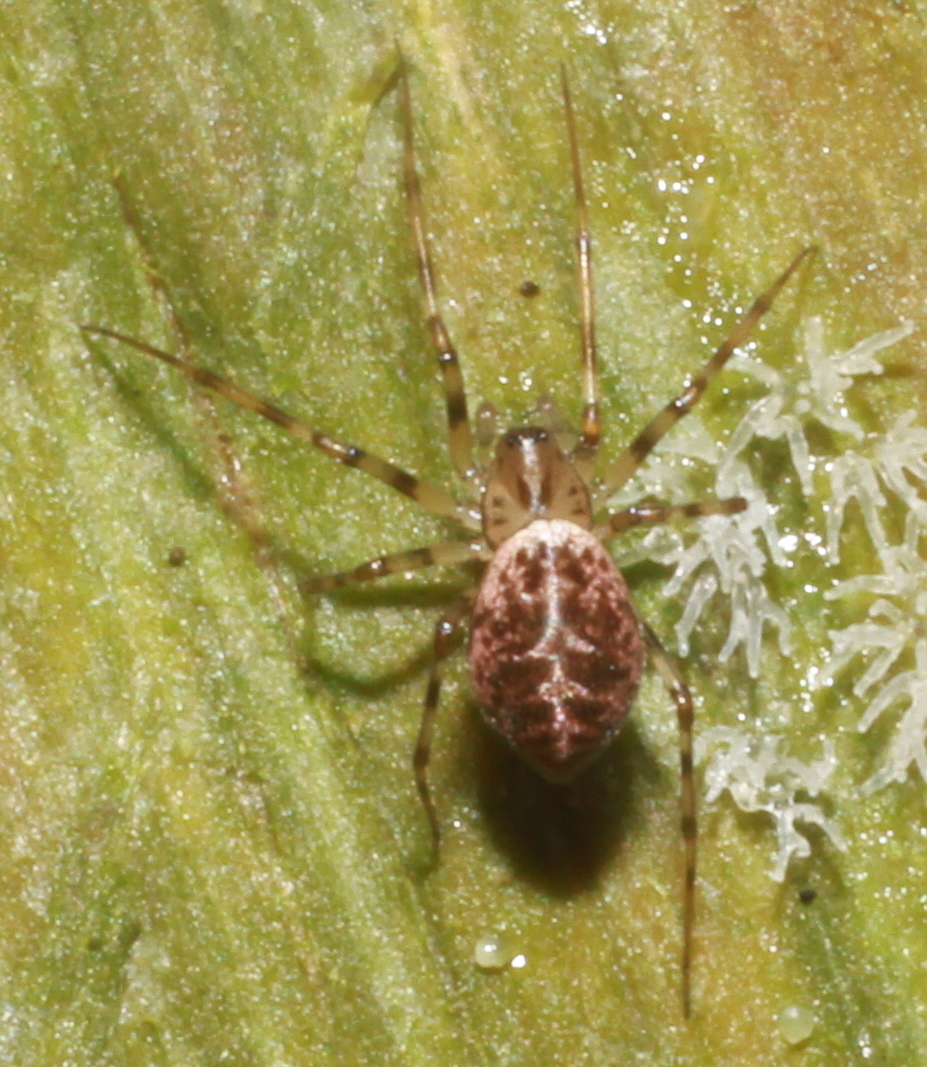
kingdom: Animalia
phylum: Arthropoda
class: Arachnida
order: Araneae
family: Linyphiidae
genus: Drapetisca
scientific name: Drapetisca socialis
